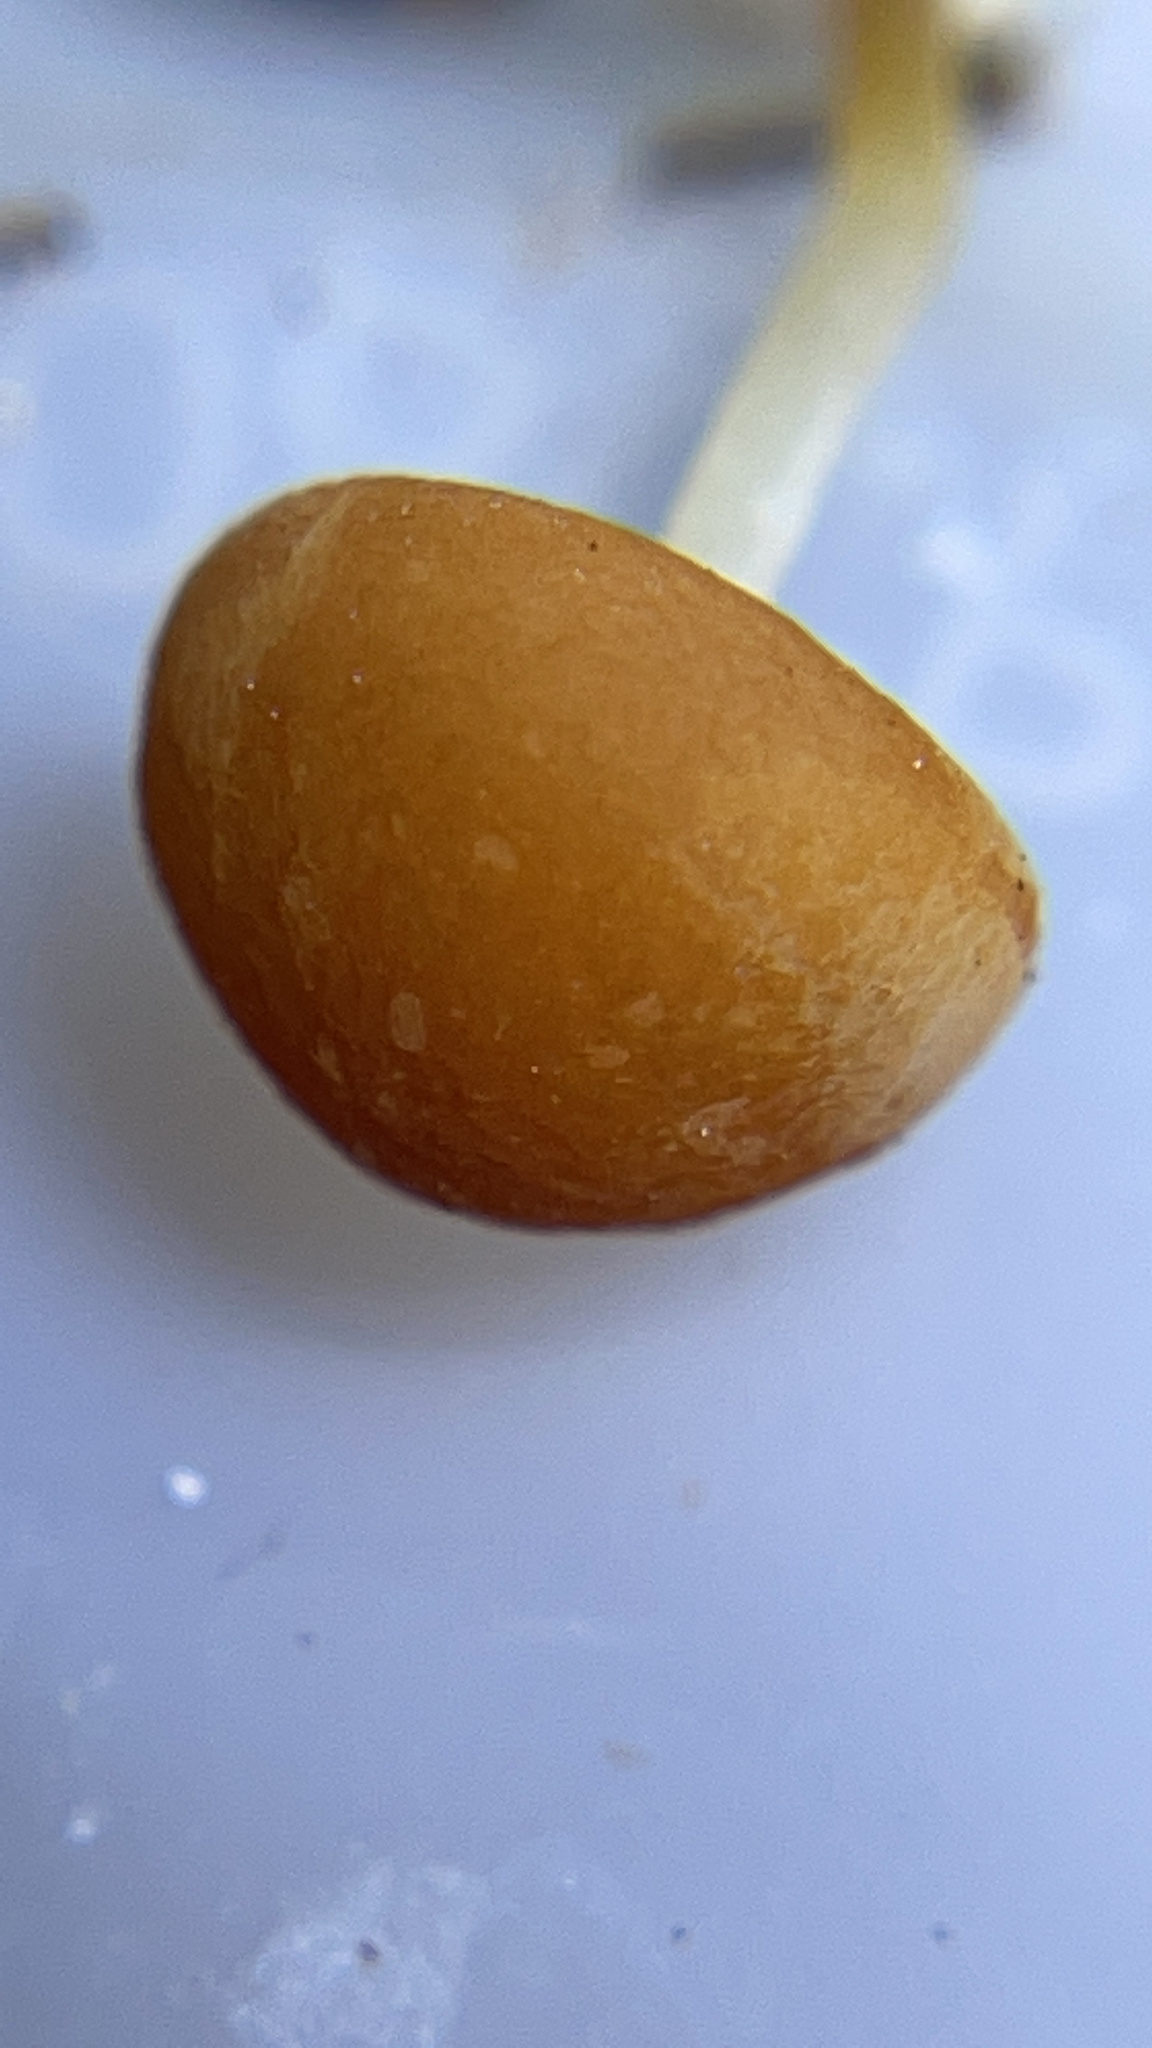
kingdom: Fungi
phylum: Basidiomycota
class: Agaricomycetes
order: Agaricales
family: Marasmiaceae
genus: Marasmius
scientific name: Marasmius sullivantii
